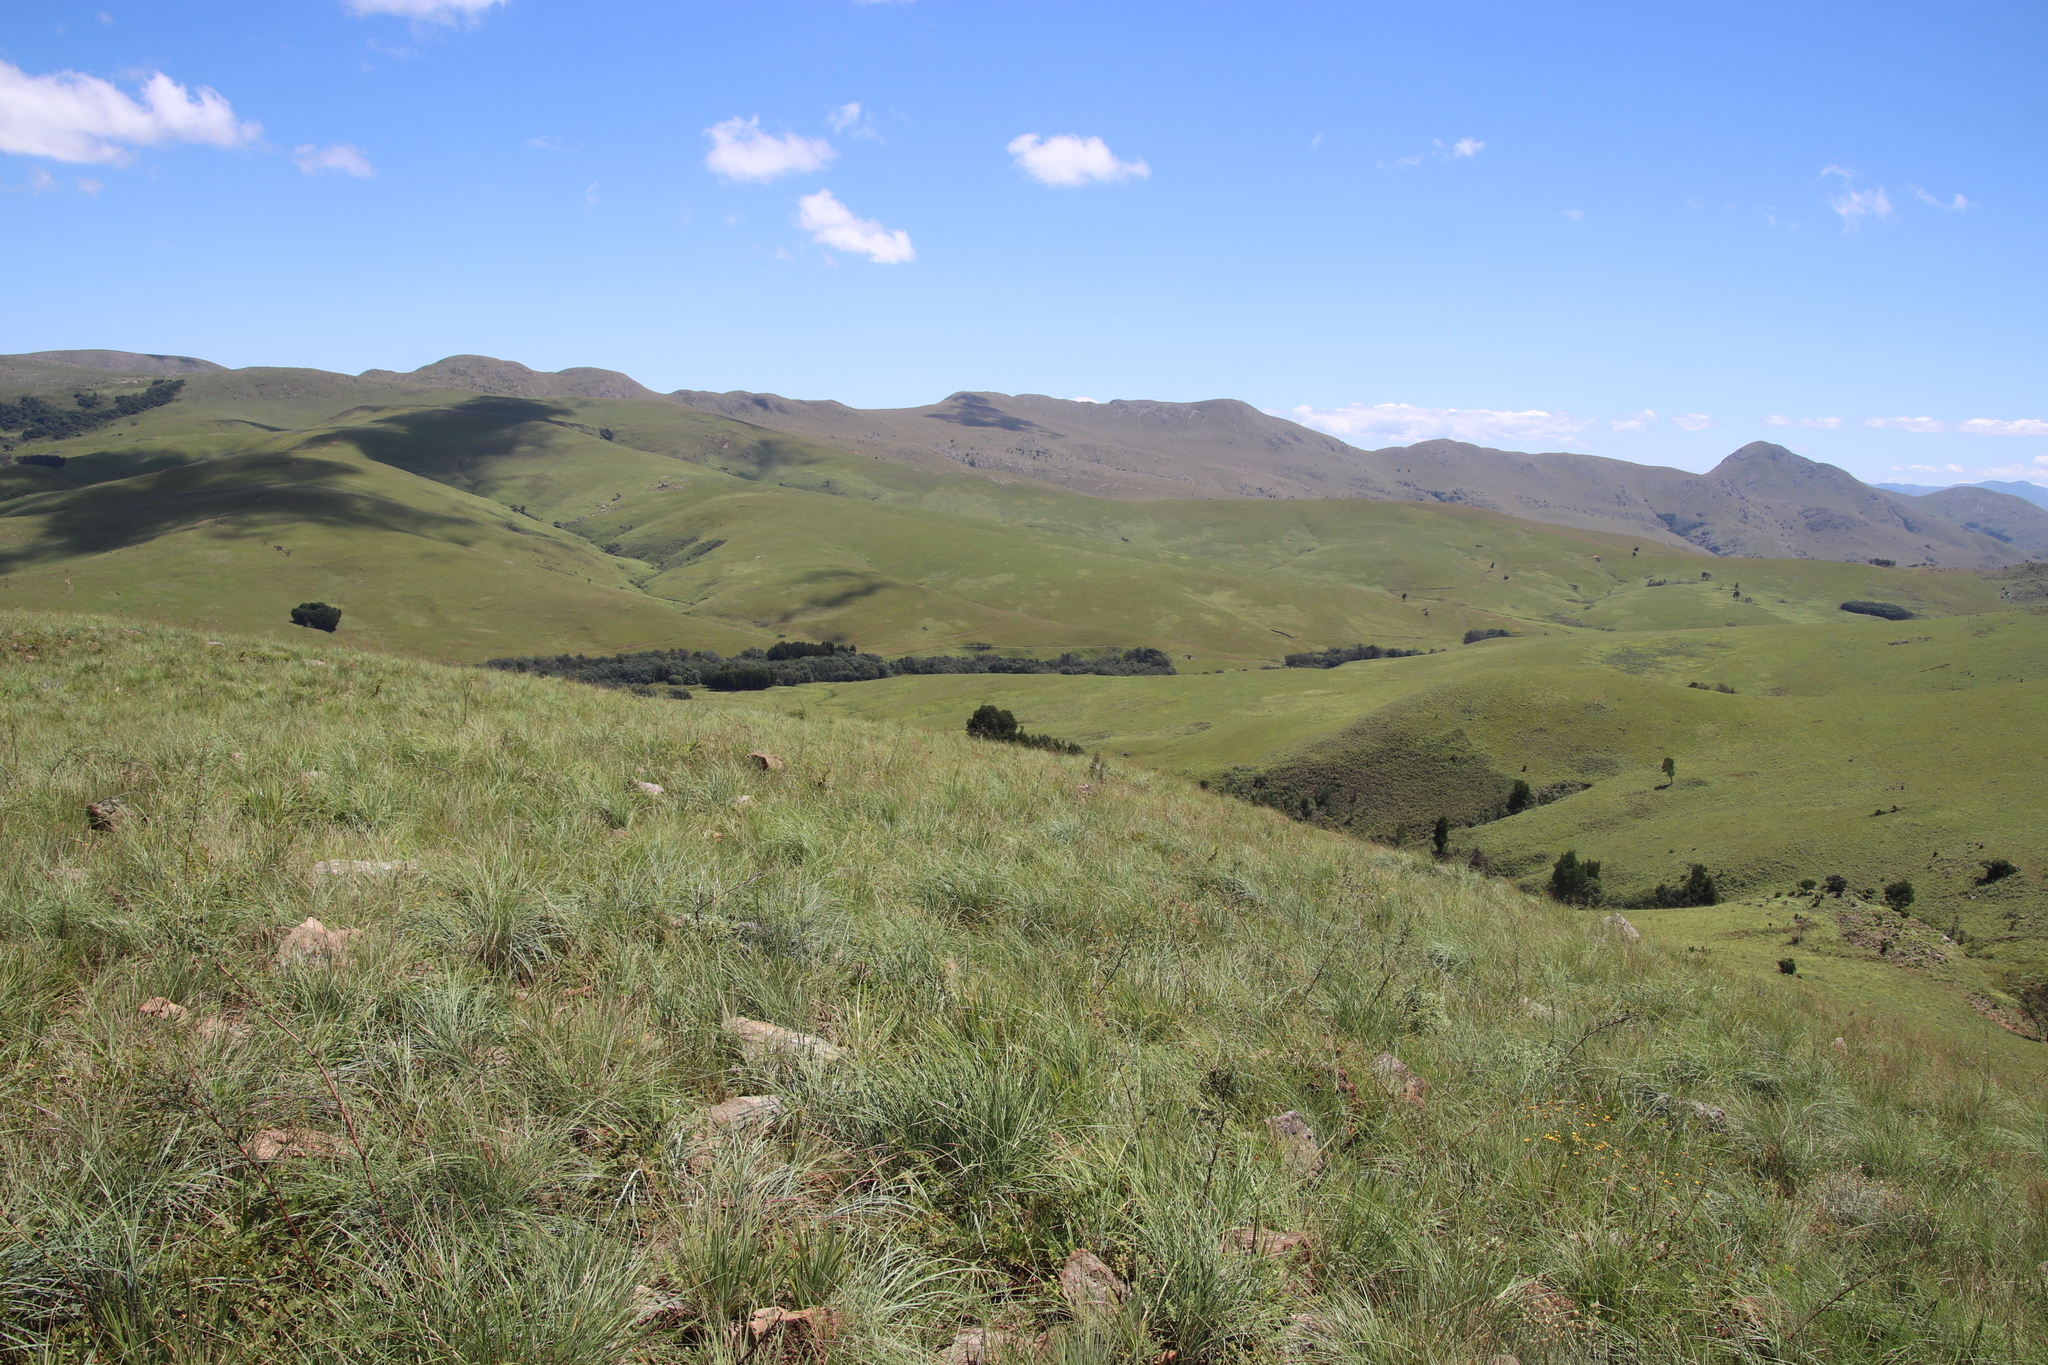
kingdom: Plantae
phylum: Tracheophyta
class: Magnoliopsida
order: Fabales
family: Fabaceae
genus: Acacia
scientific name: Acacia dealbata
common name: Silver wattle
